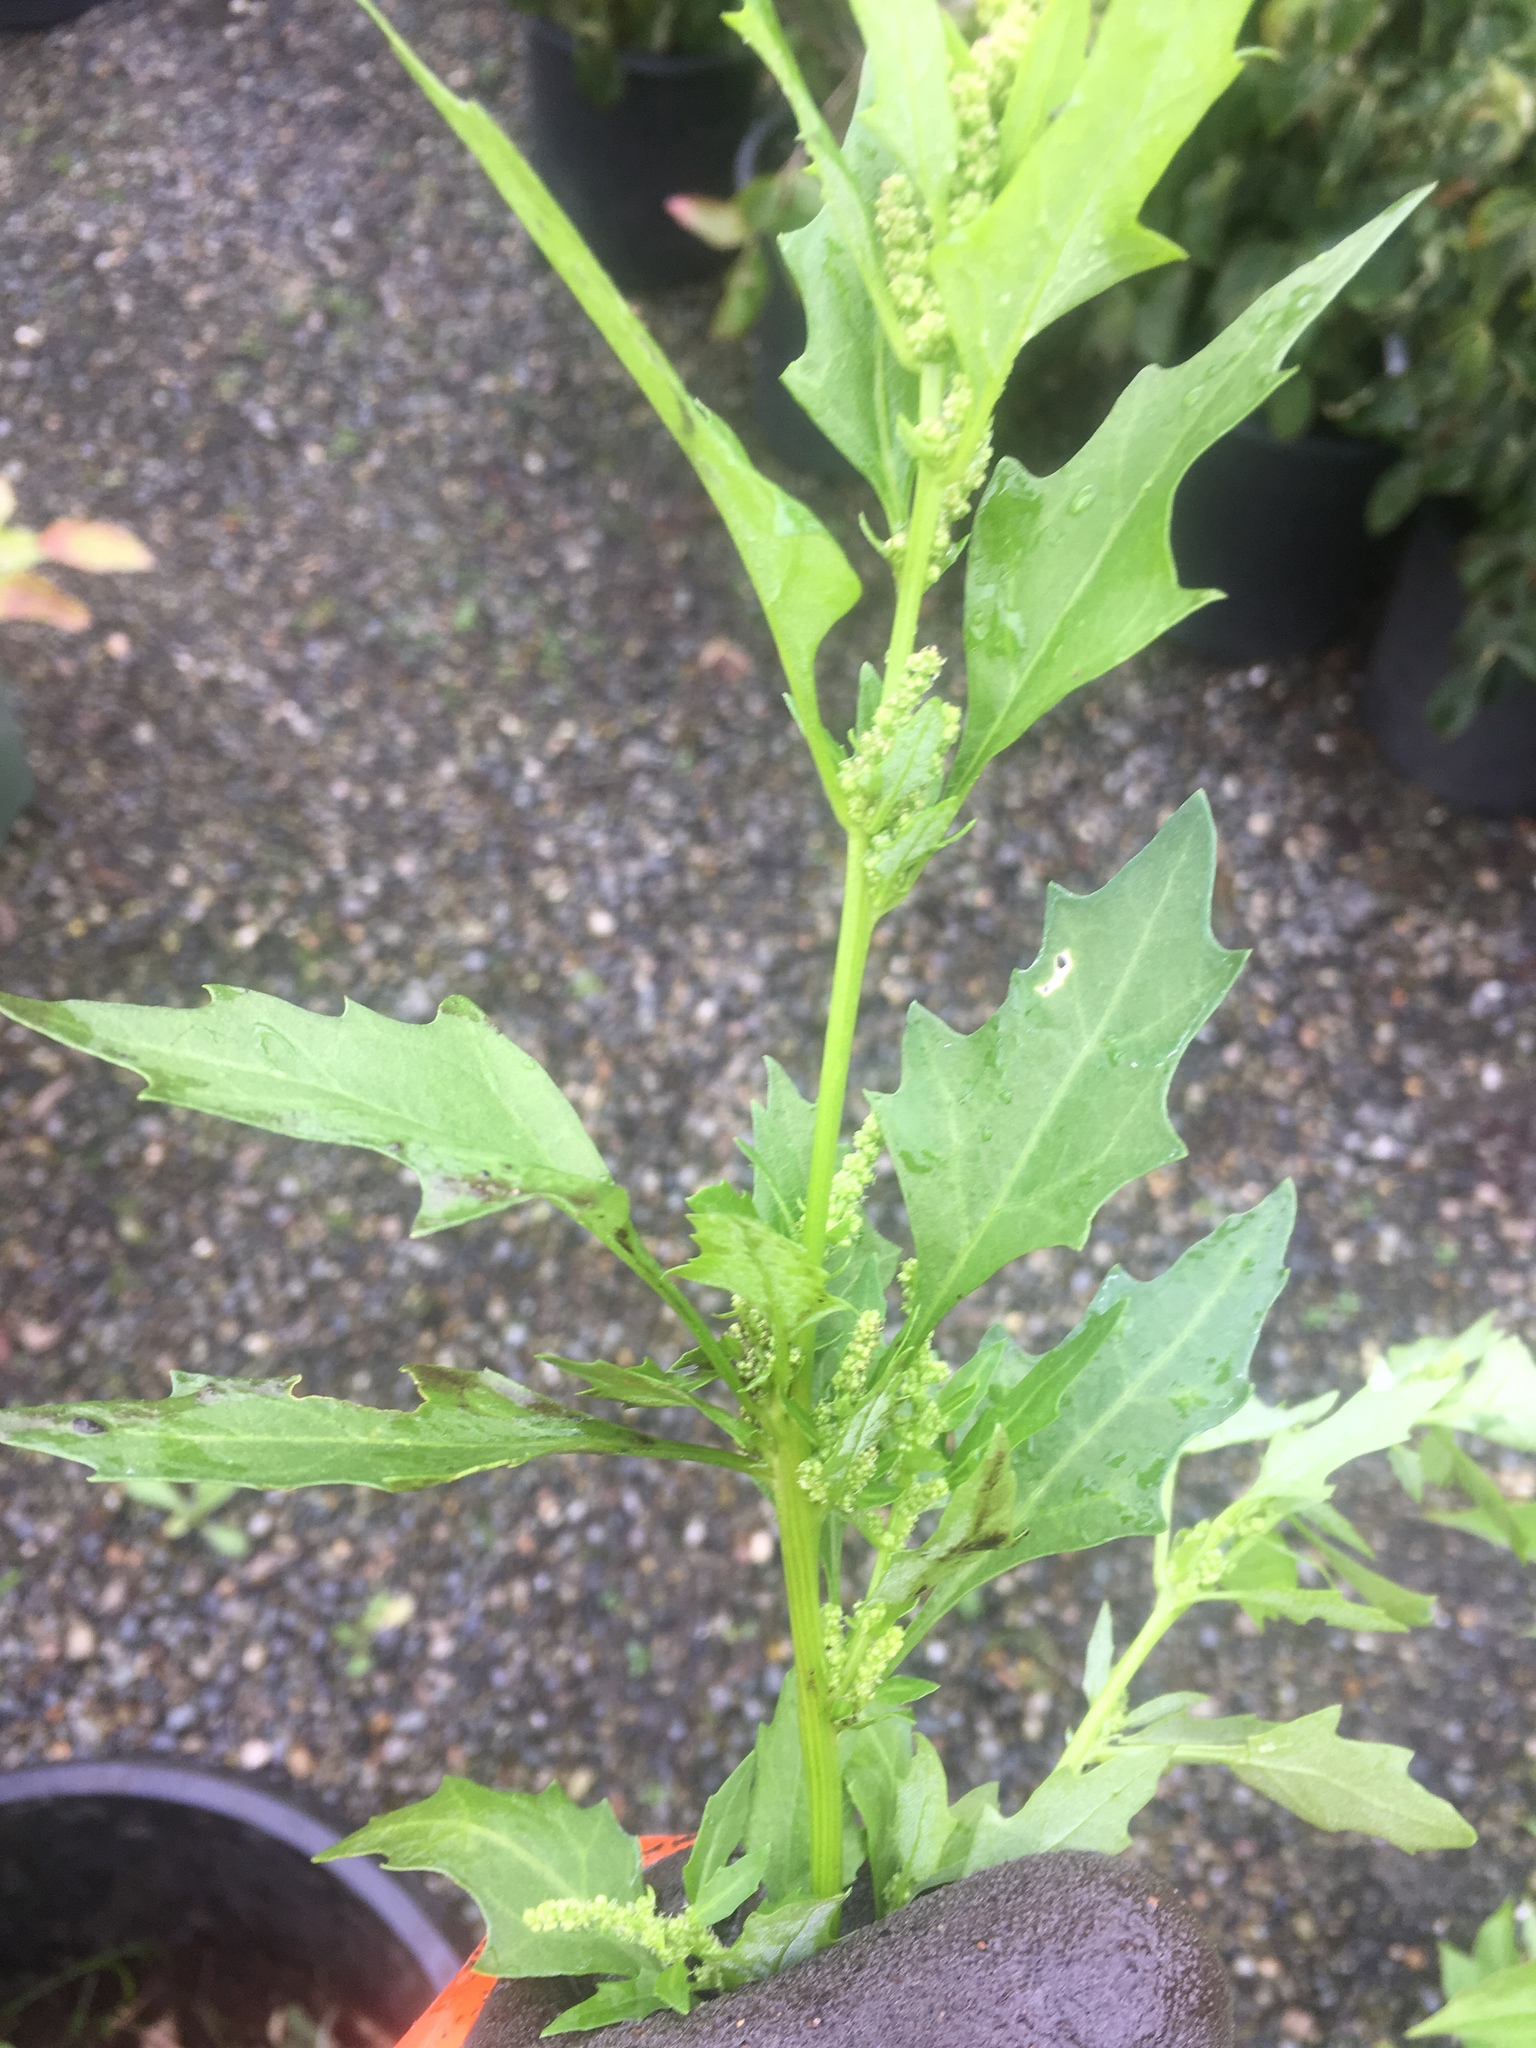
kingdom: Plantae
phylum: Tracheophyta
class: Magnoliopsida
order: Caryophyllales
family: Amaranthaceae
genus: Chenopodium
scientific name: Chenopodium album
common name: Fat-hen
